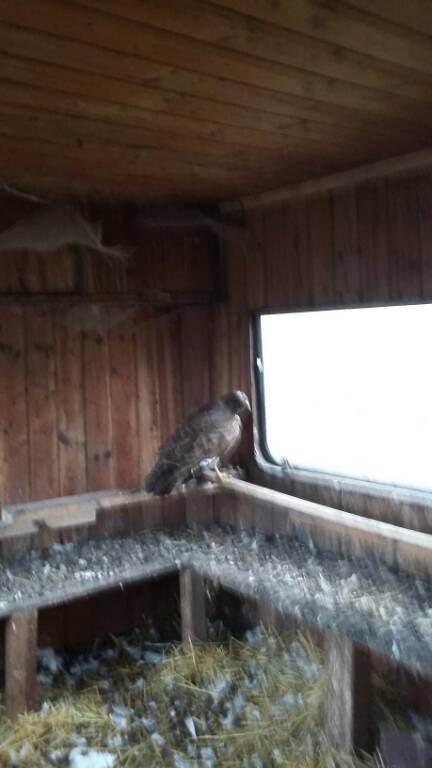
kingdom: Animalia
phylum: Chordata
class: Aves
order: Accipitriformes
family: Accipitridae
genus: Buteo
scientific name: Buteo buteo
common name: Common buzzard
